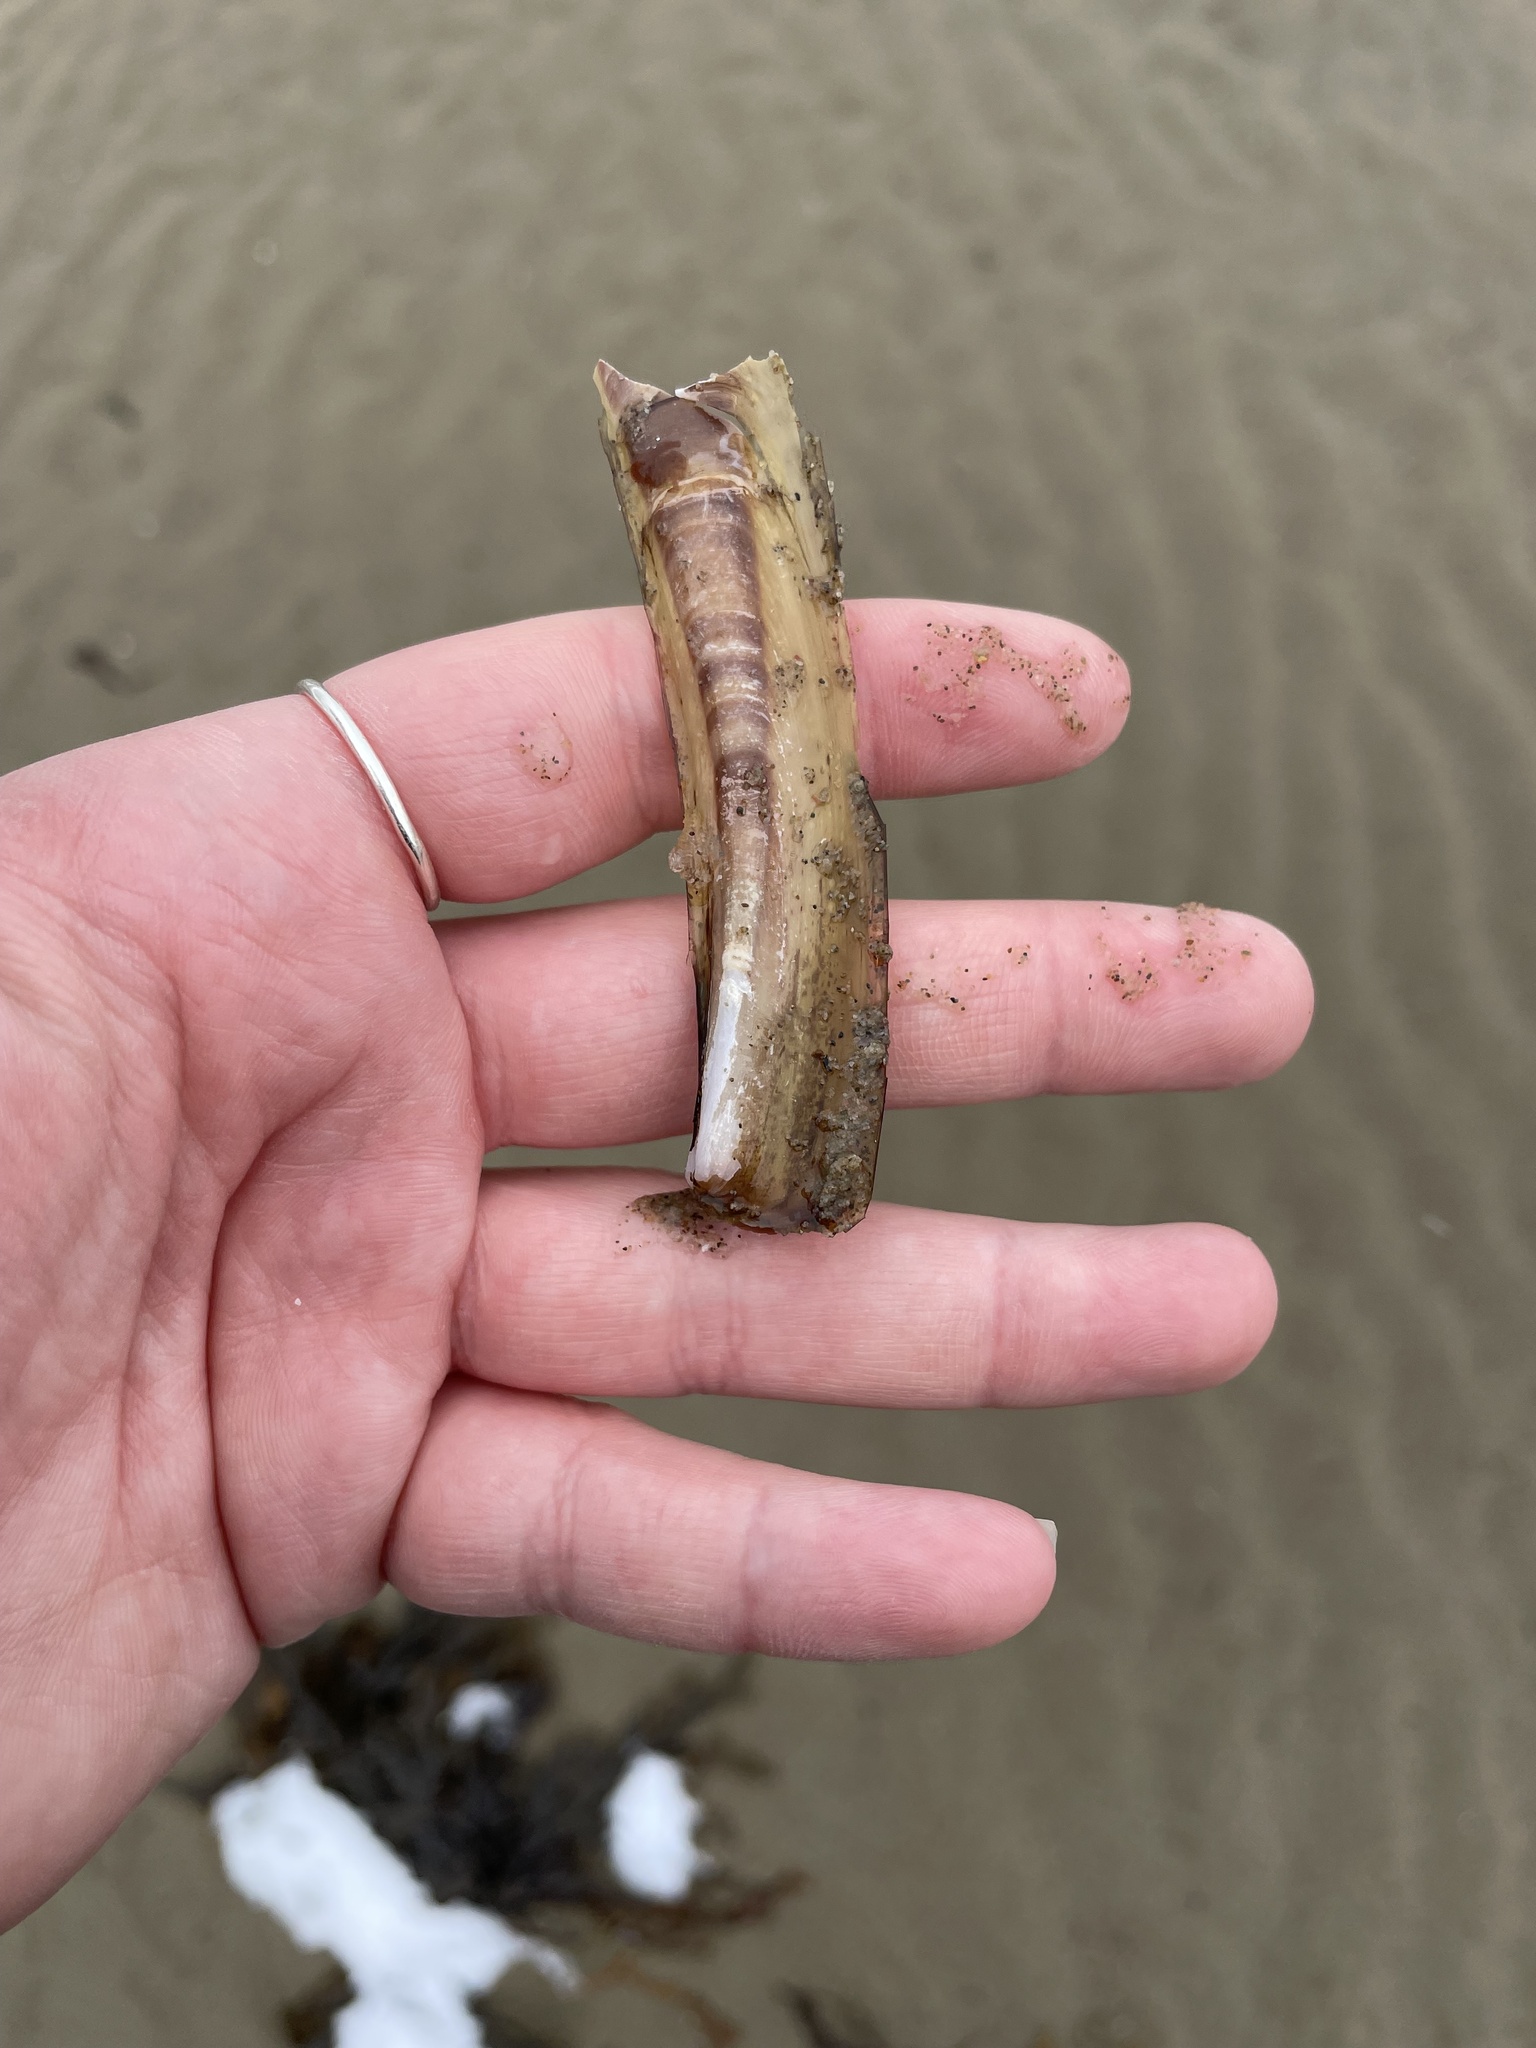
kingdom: Animalia
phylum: Mollusca
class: Bivalvia
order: Adapedonta
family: Pharidae
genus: Ensis
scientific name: Ensis leei
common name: American jack knife clam
